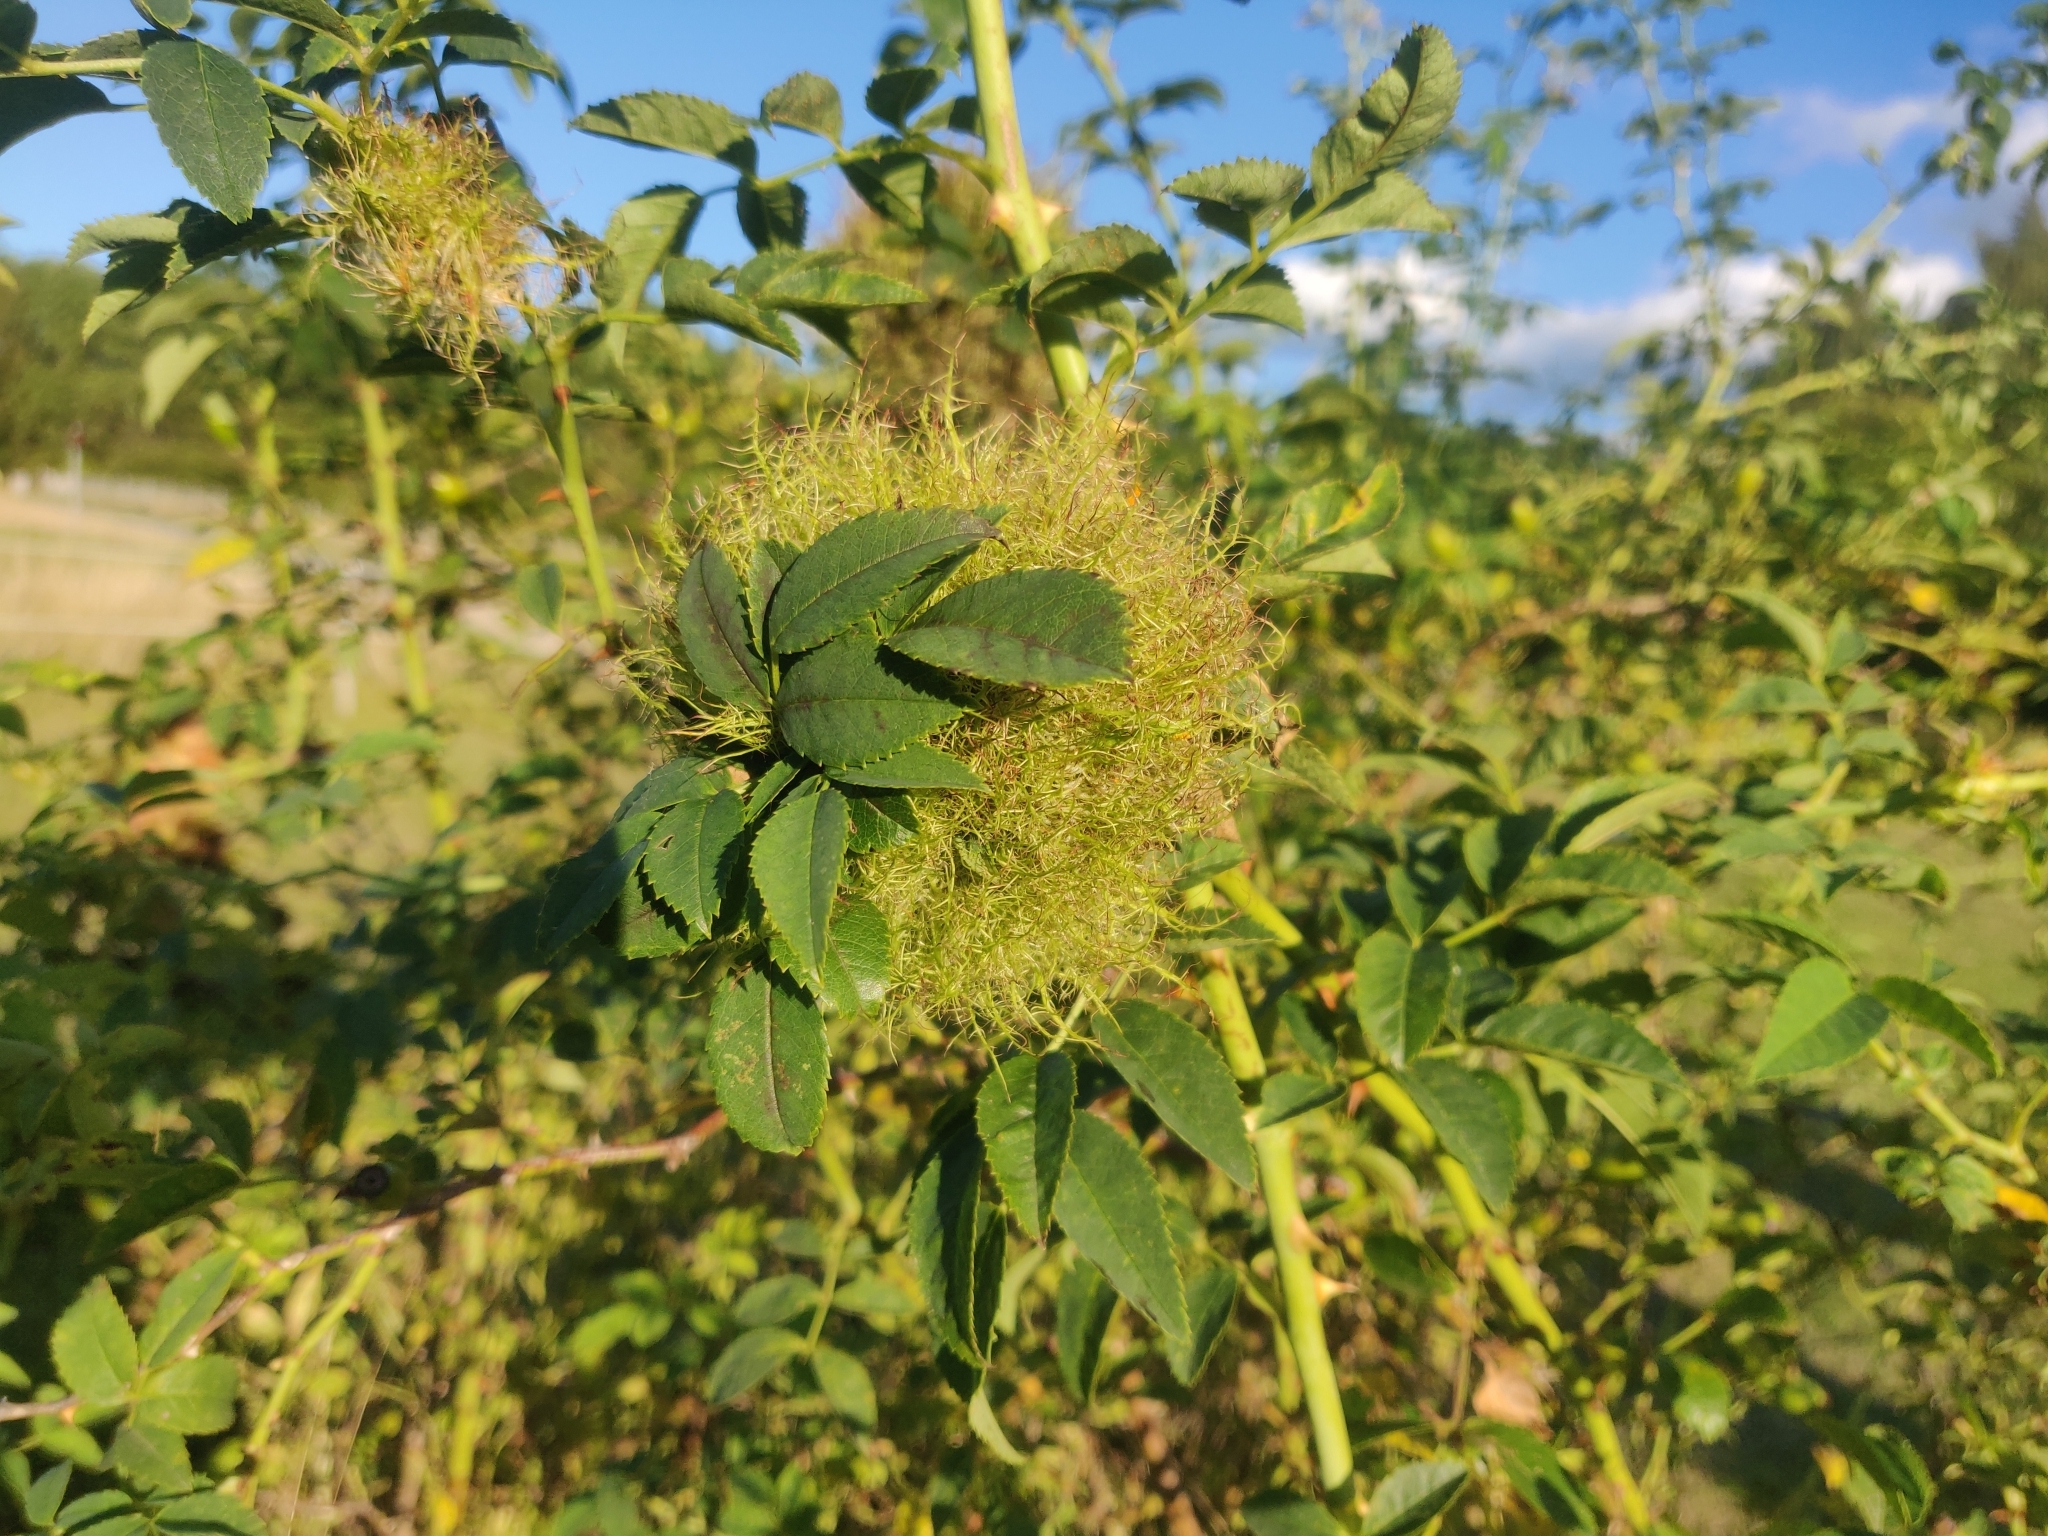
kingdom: Animalia
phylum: Arthropoda
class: Insecta
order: Hymenoptera
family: Cynipidae
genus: Diplolepis
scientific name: Diplolepis rosae
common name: Bedeguar gall
